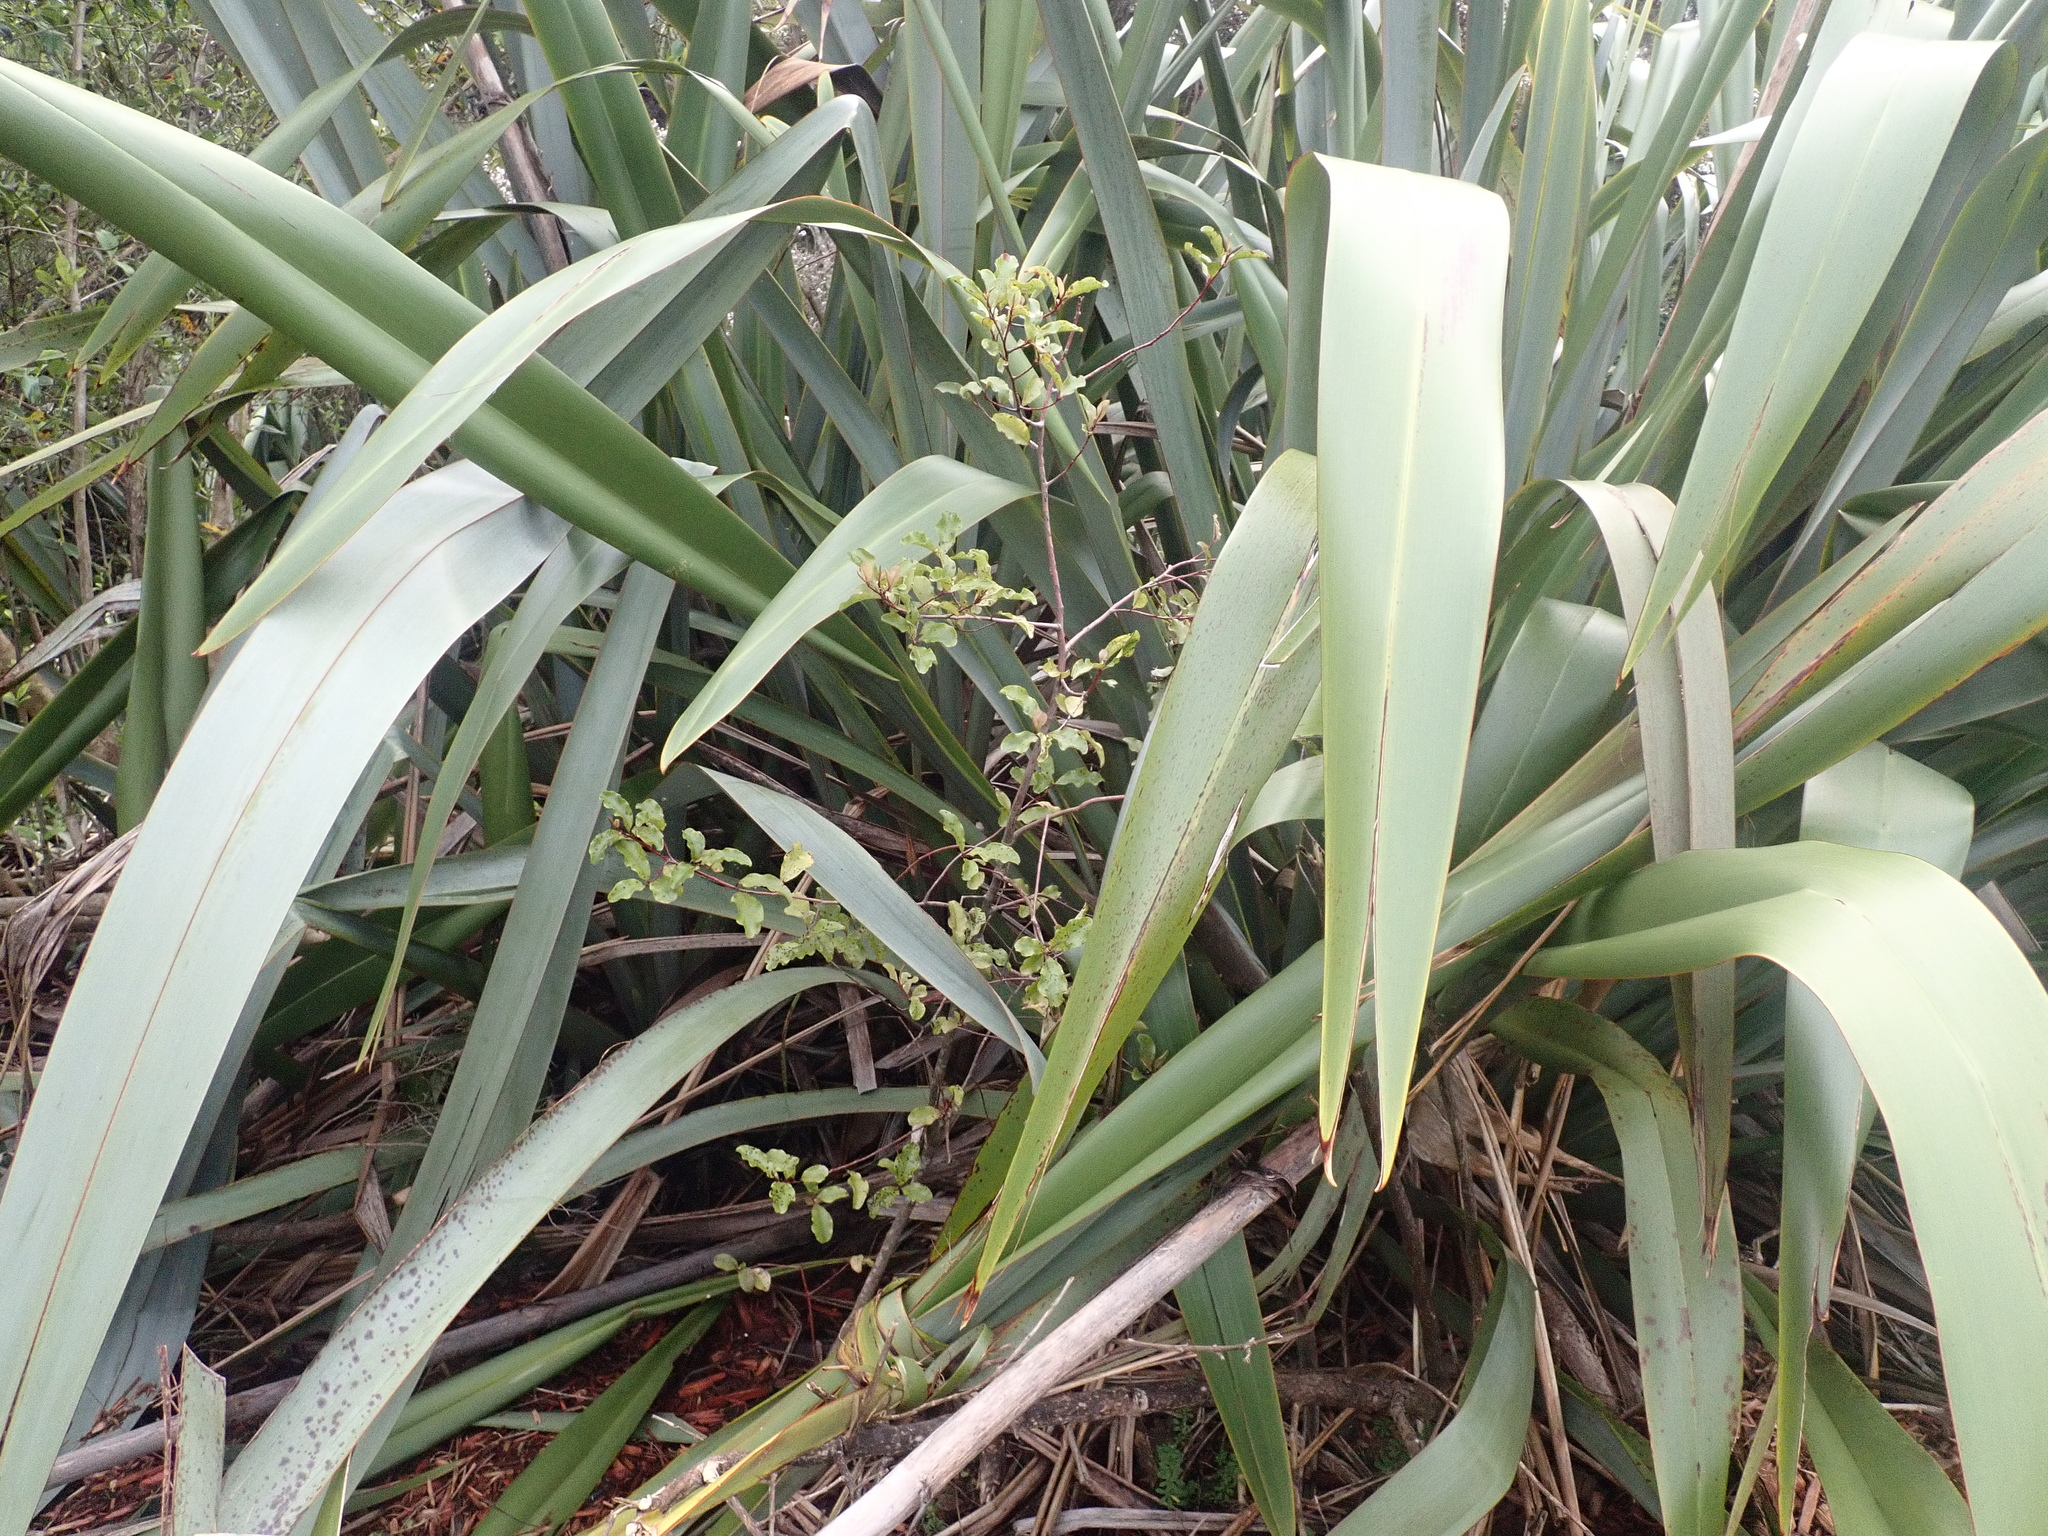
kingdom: Plantae
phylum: Tracheophyta
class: Magnoliopsida
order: Ericales
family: Primulaceae
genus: Myrsine
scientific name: Myrsine australis
